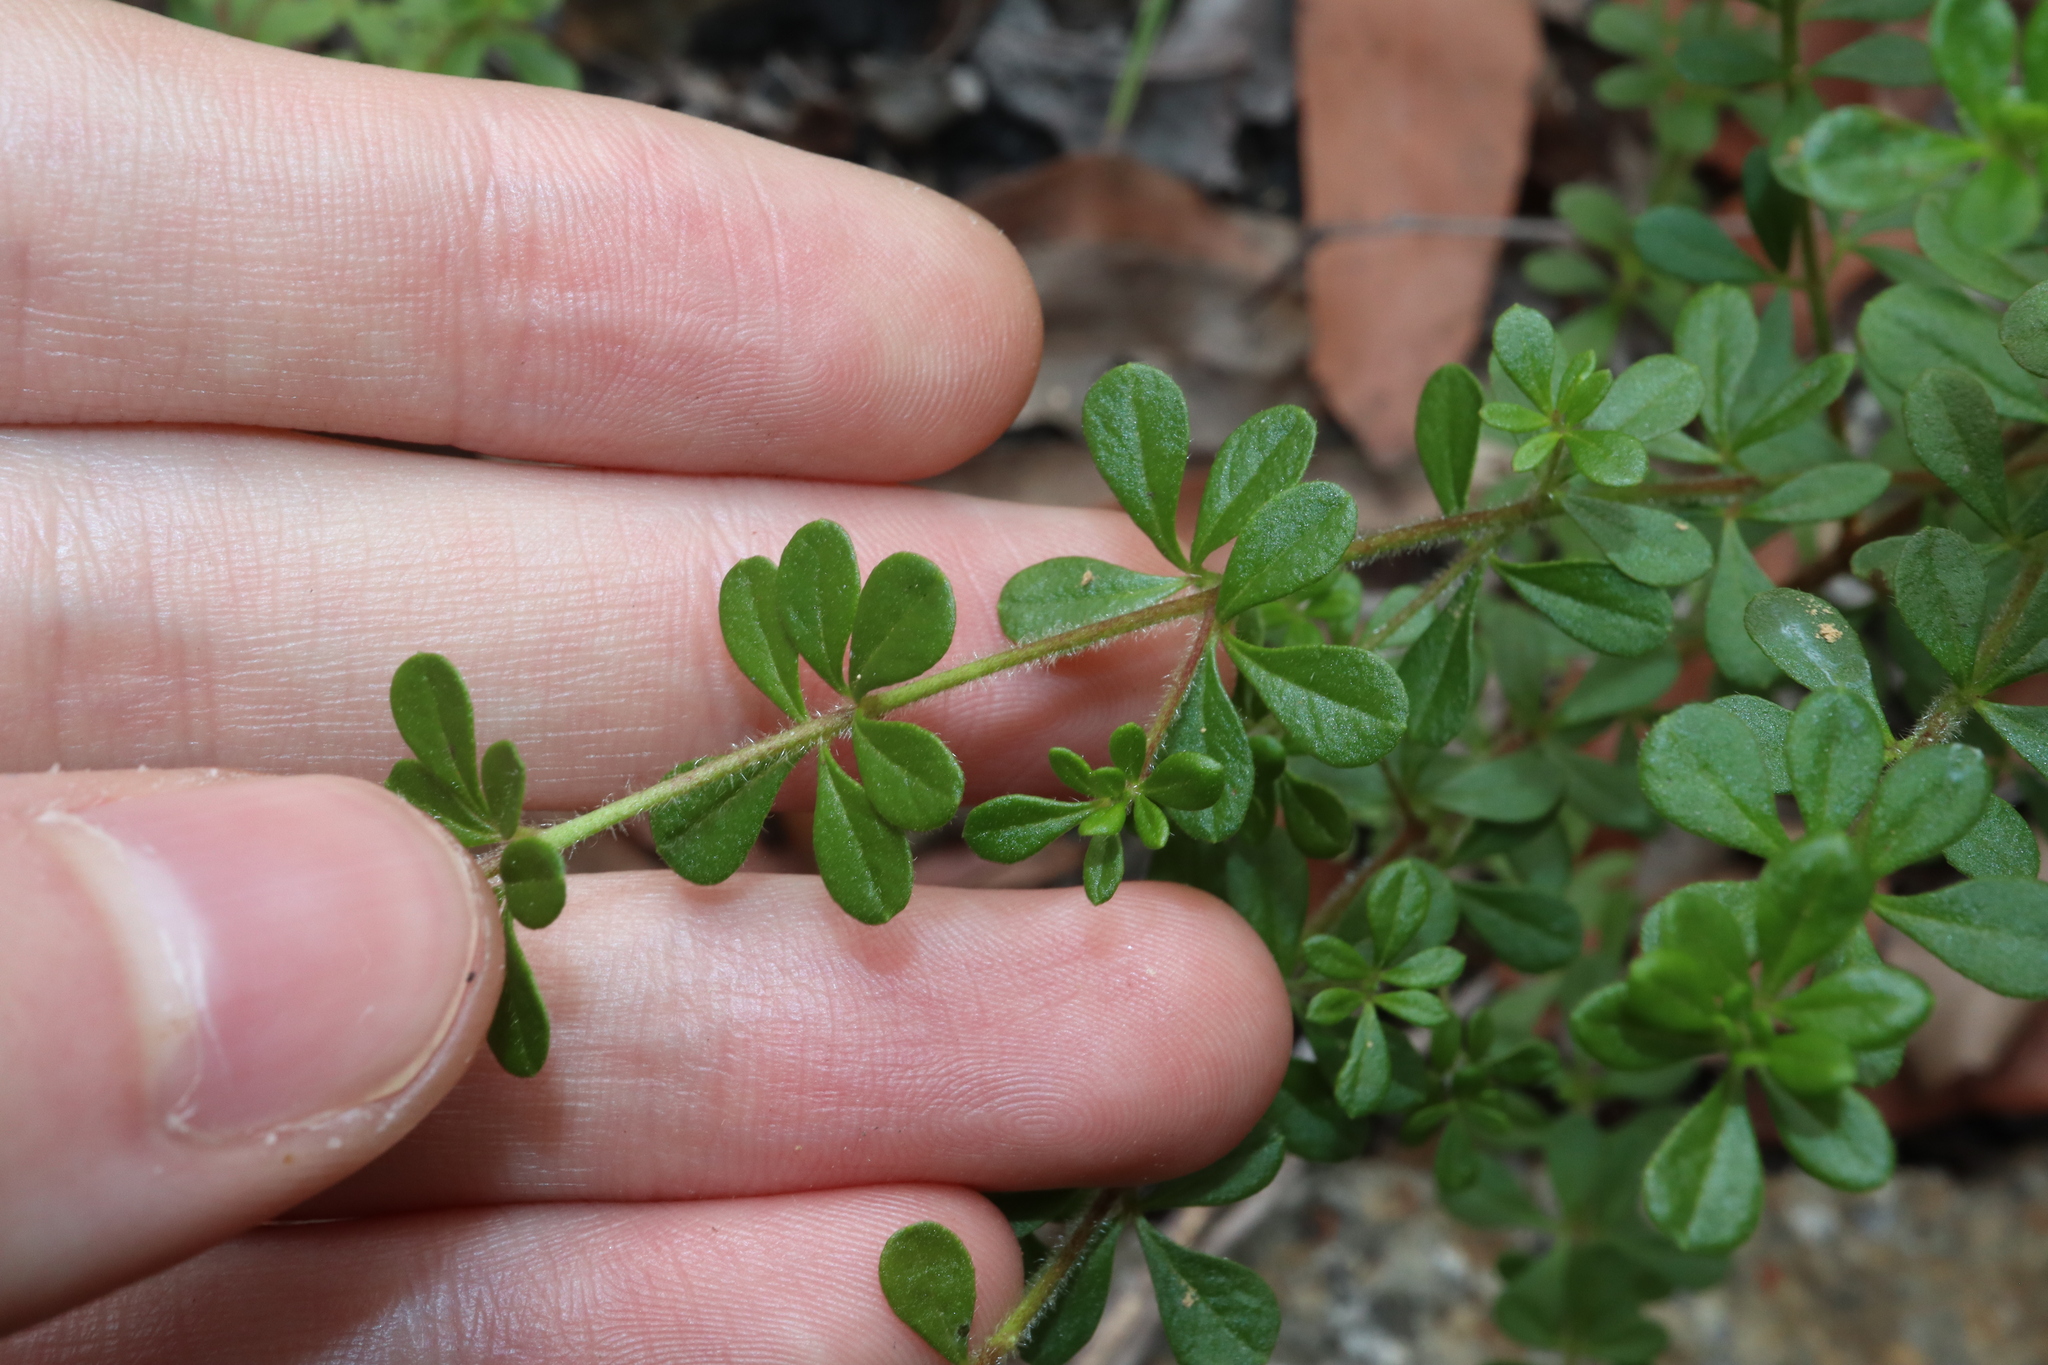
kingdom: Plantae
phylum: Tracheophyta
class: Magnoliopsida
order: Sapindales
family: Rutaceae
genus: Zieria
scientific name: Zieria obovata
